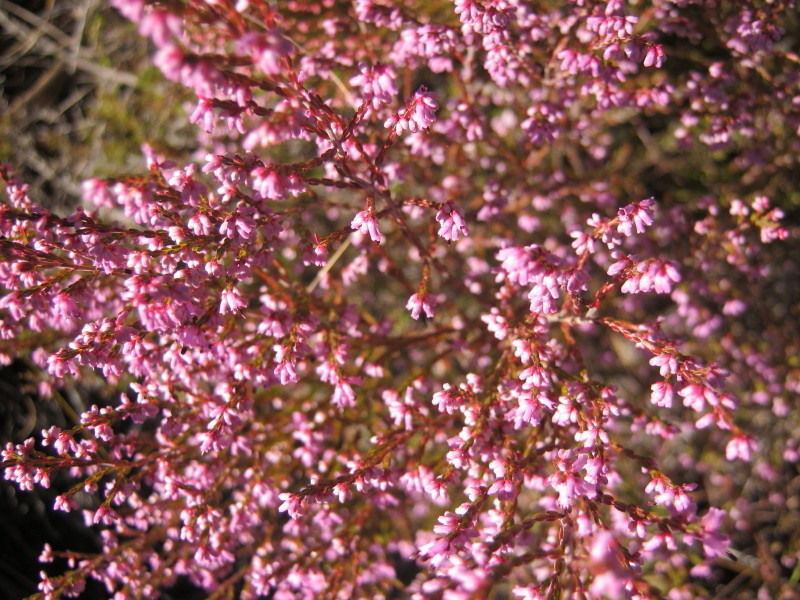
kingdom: Plantae
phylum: Tracheophyta
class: Magnoliopsida
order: Ericales
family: Ericaceae
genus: Erica
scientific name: Erica rosacea
